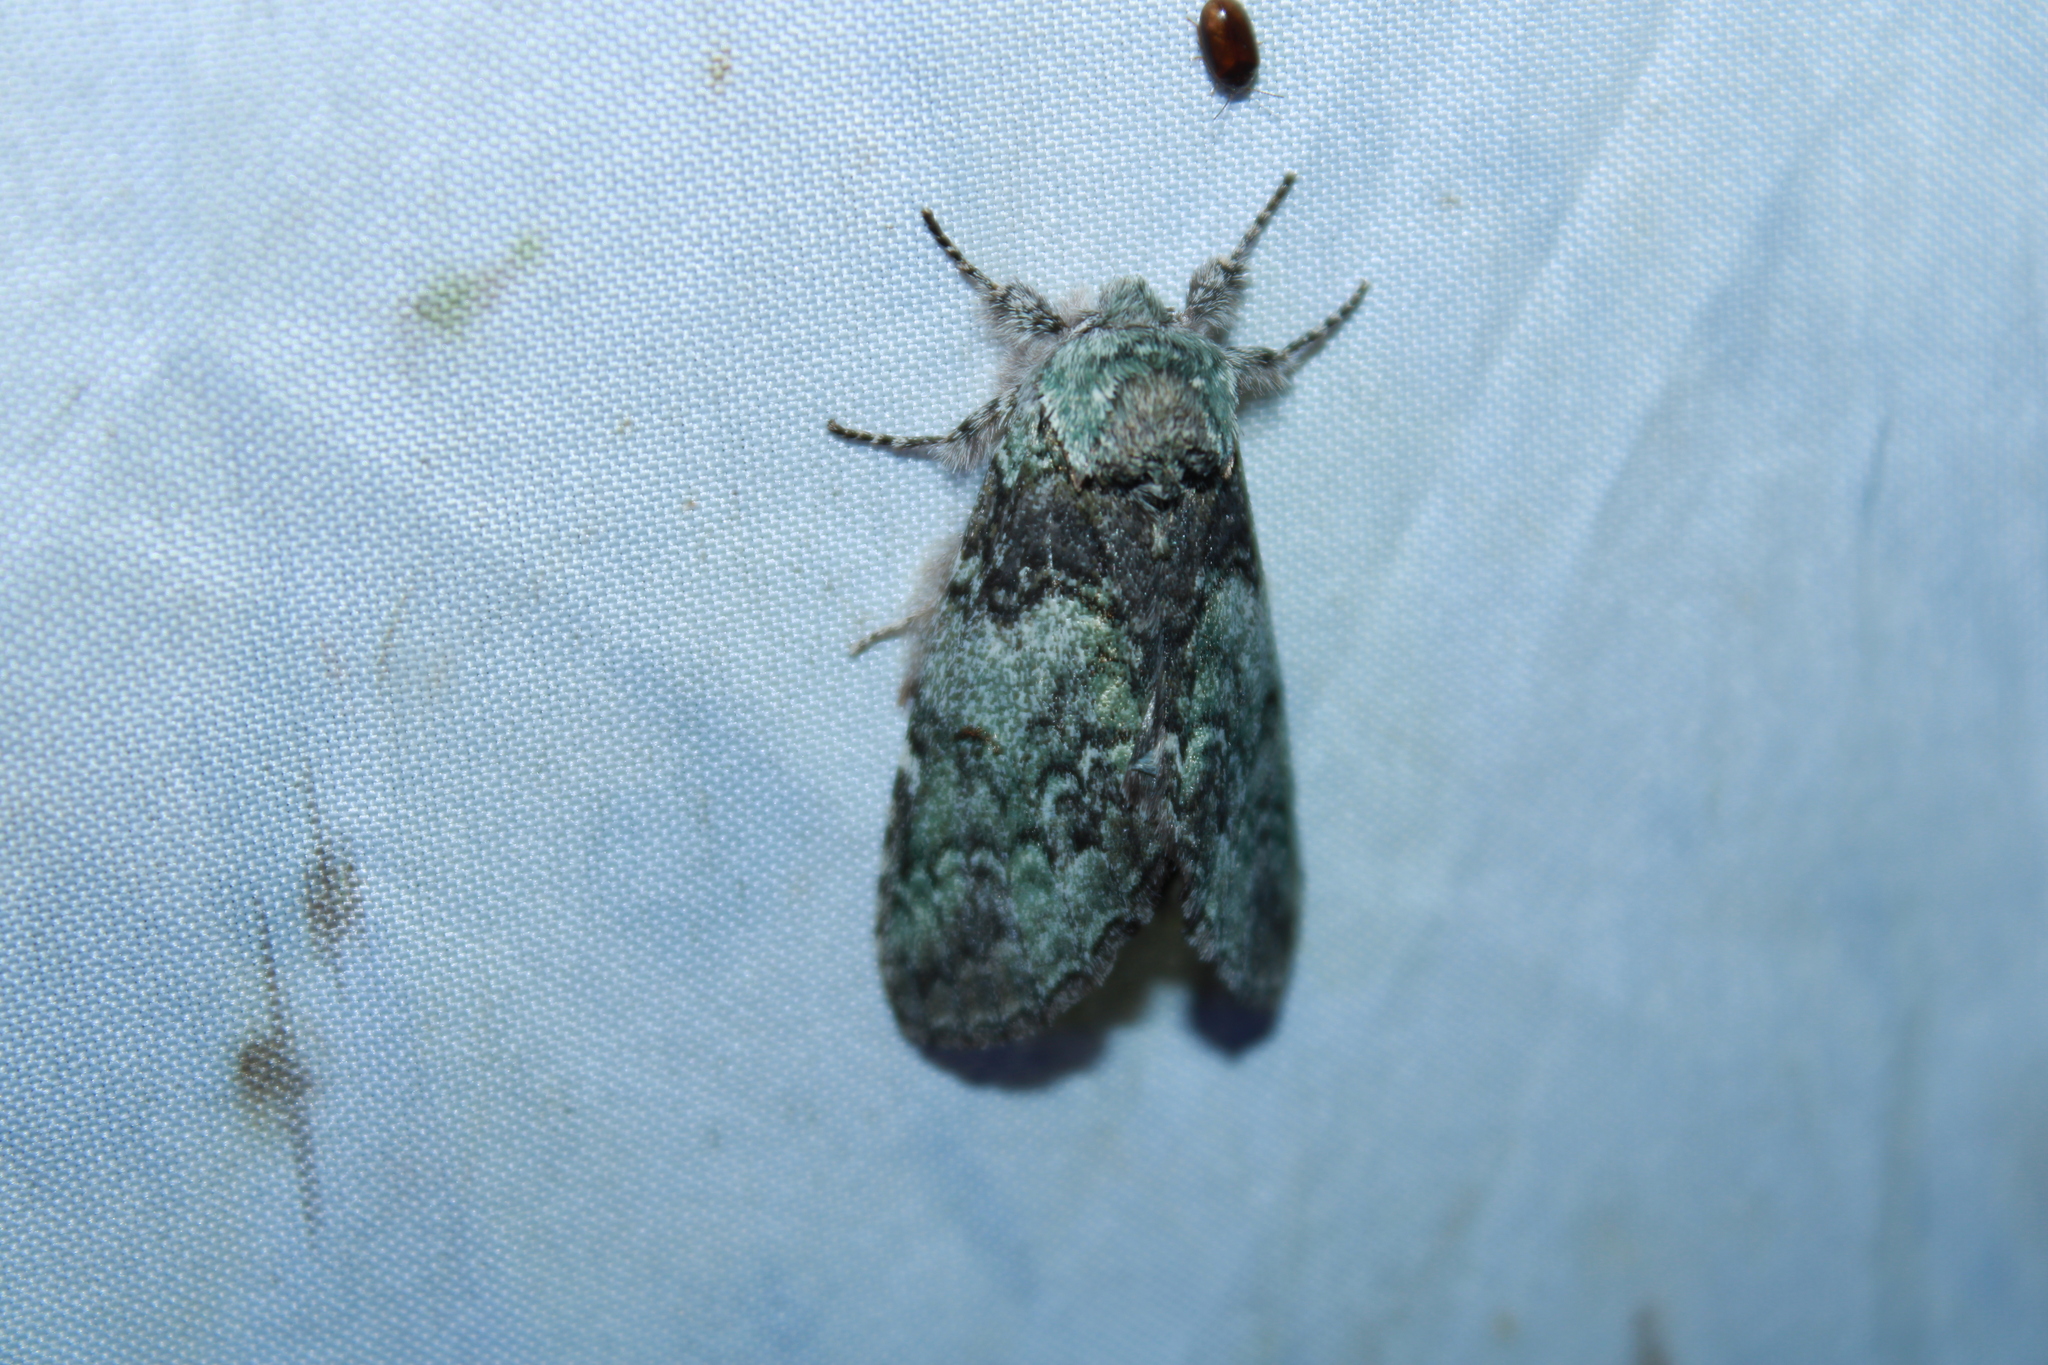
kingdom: Animalia
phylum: Arthropoda
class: Insecta
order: Lepidoptera
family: Notodontidae
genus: Macrurocampa
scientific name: Macrurocampa marthesia
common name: Mottled prominent
